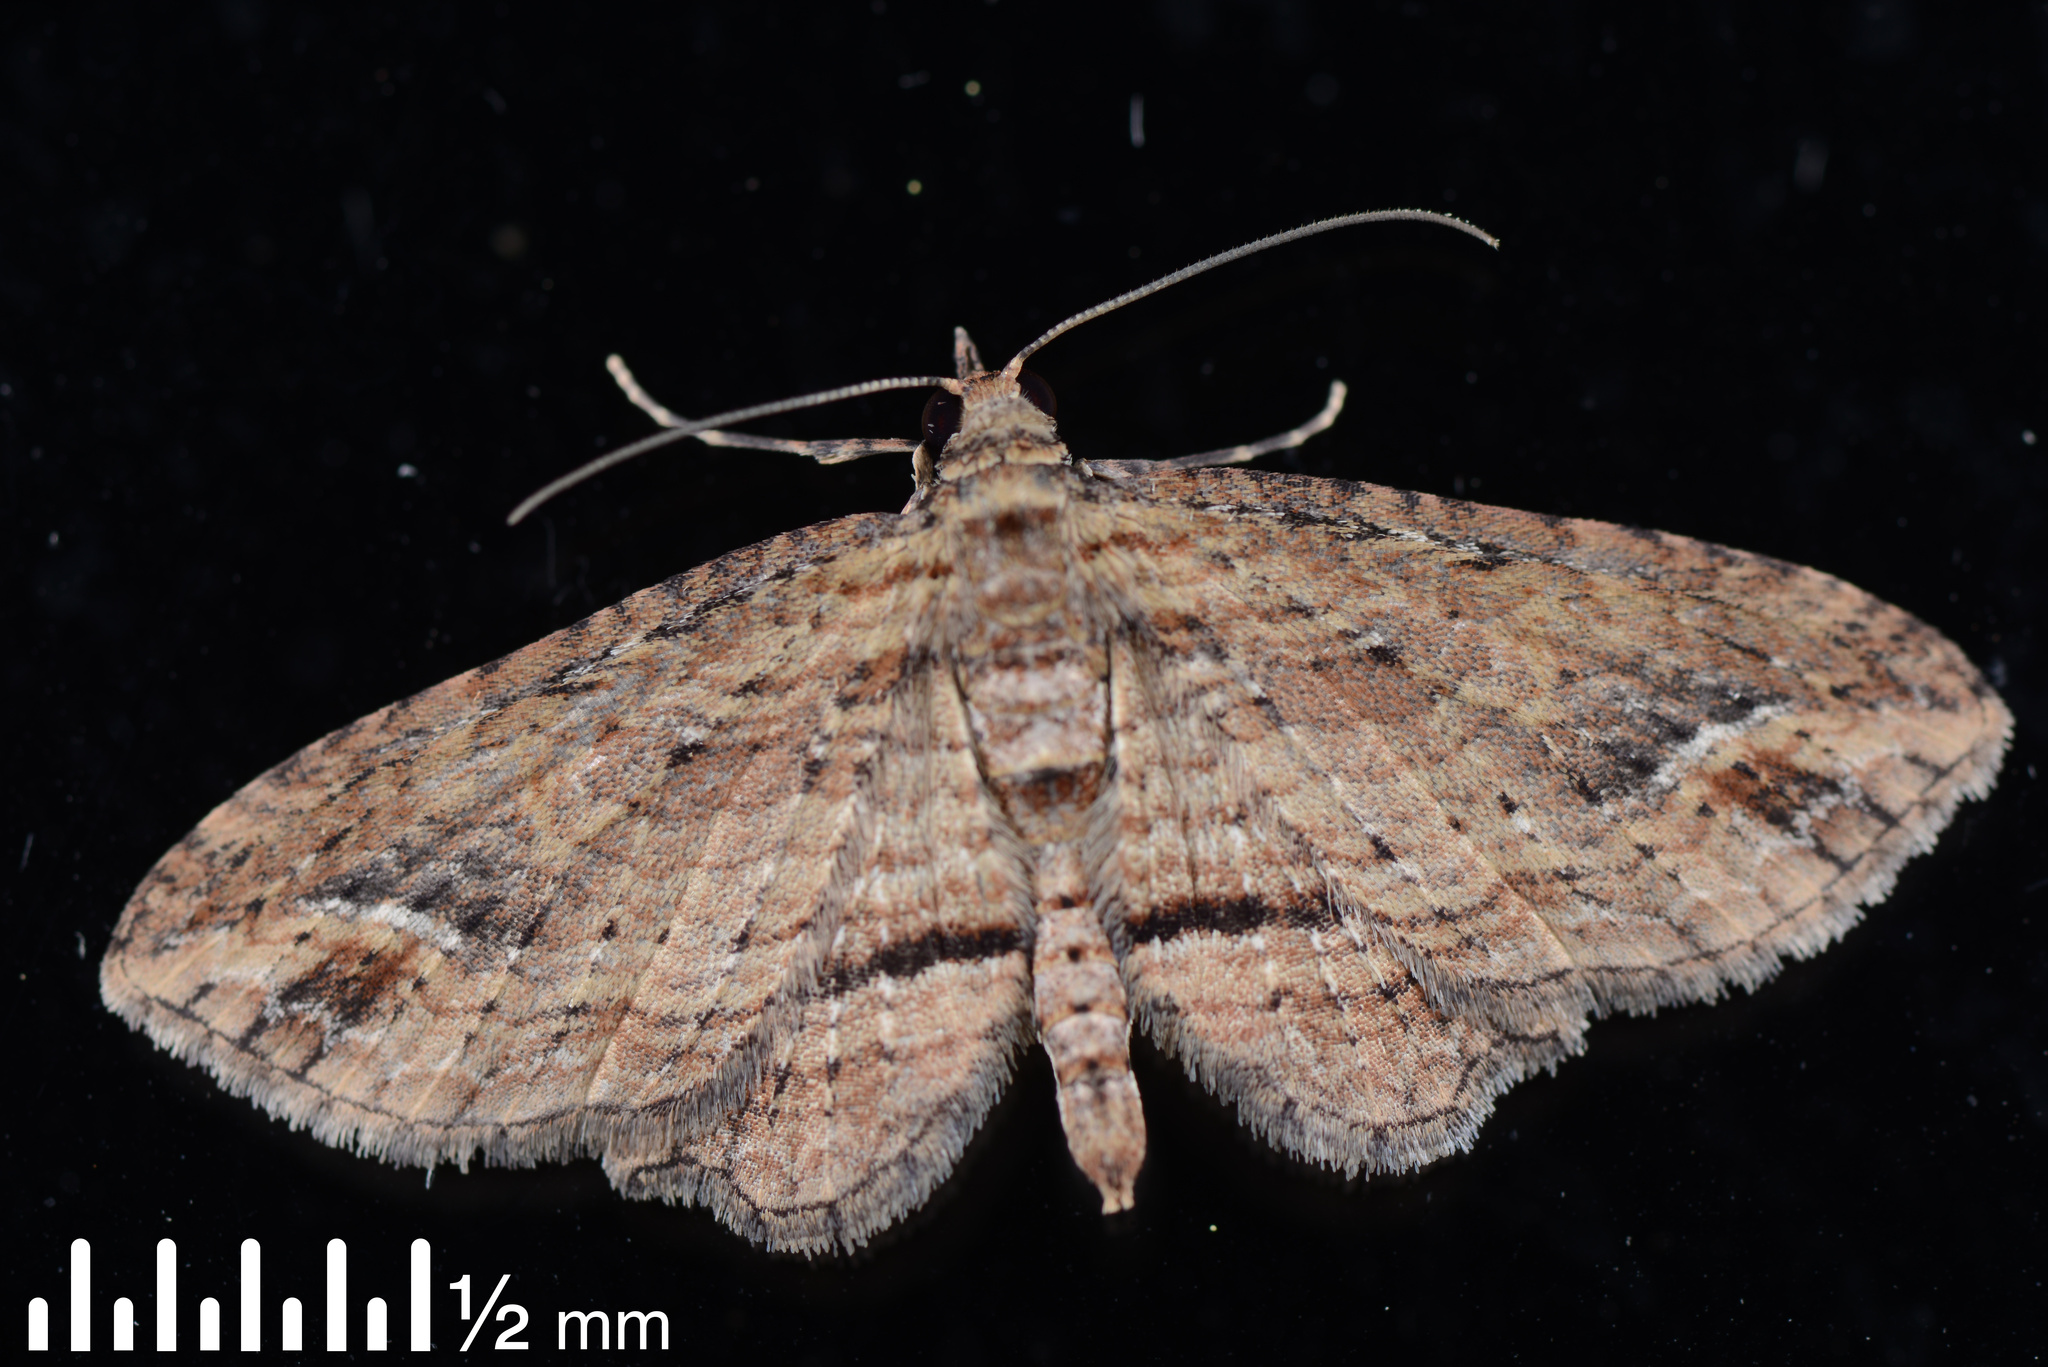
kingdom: Animalia
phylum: Arthropoda
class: Insecta
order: Lepidoptera
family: Geometridae
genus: Chloroclystis
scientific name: Chloroclystis filata
